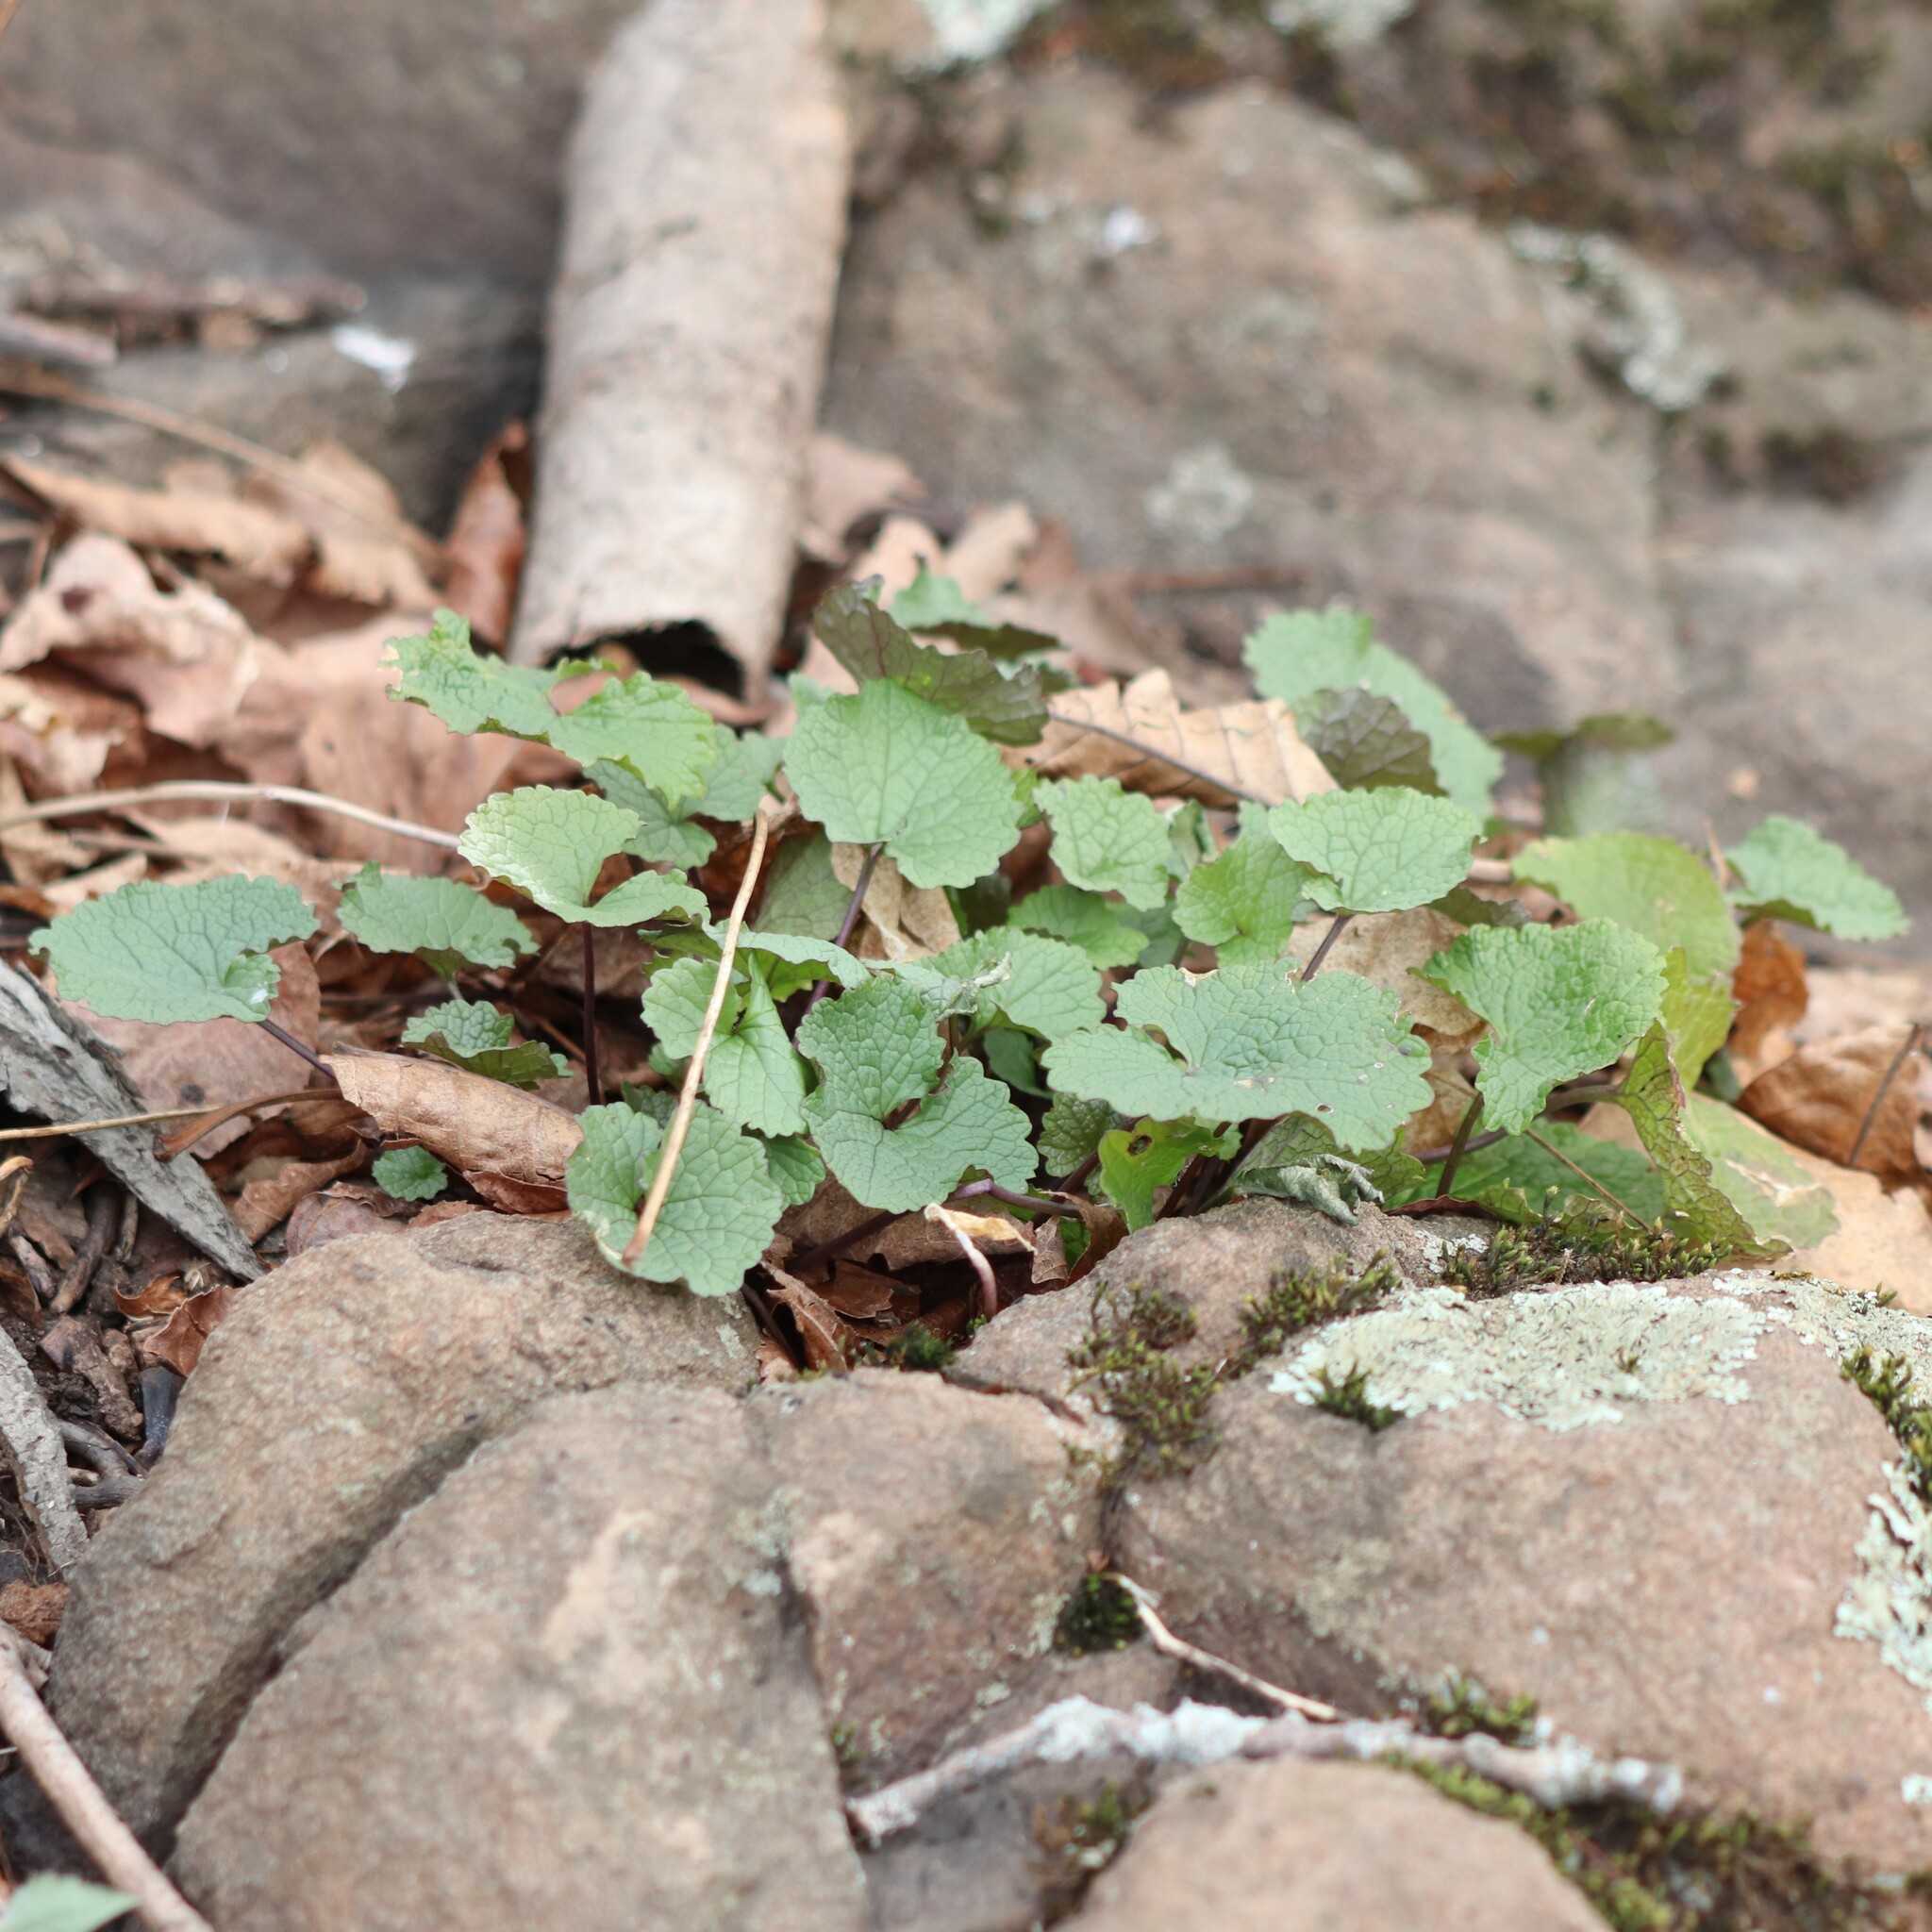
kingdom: Plantae
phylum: Tracheophyta
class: Magnoliopsida
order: Brassicales
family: Brassicaceae
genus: Alliaria
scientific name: Alliaria petiolata
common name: Garlic mustard
